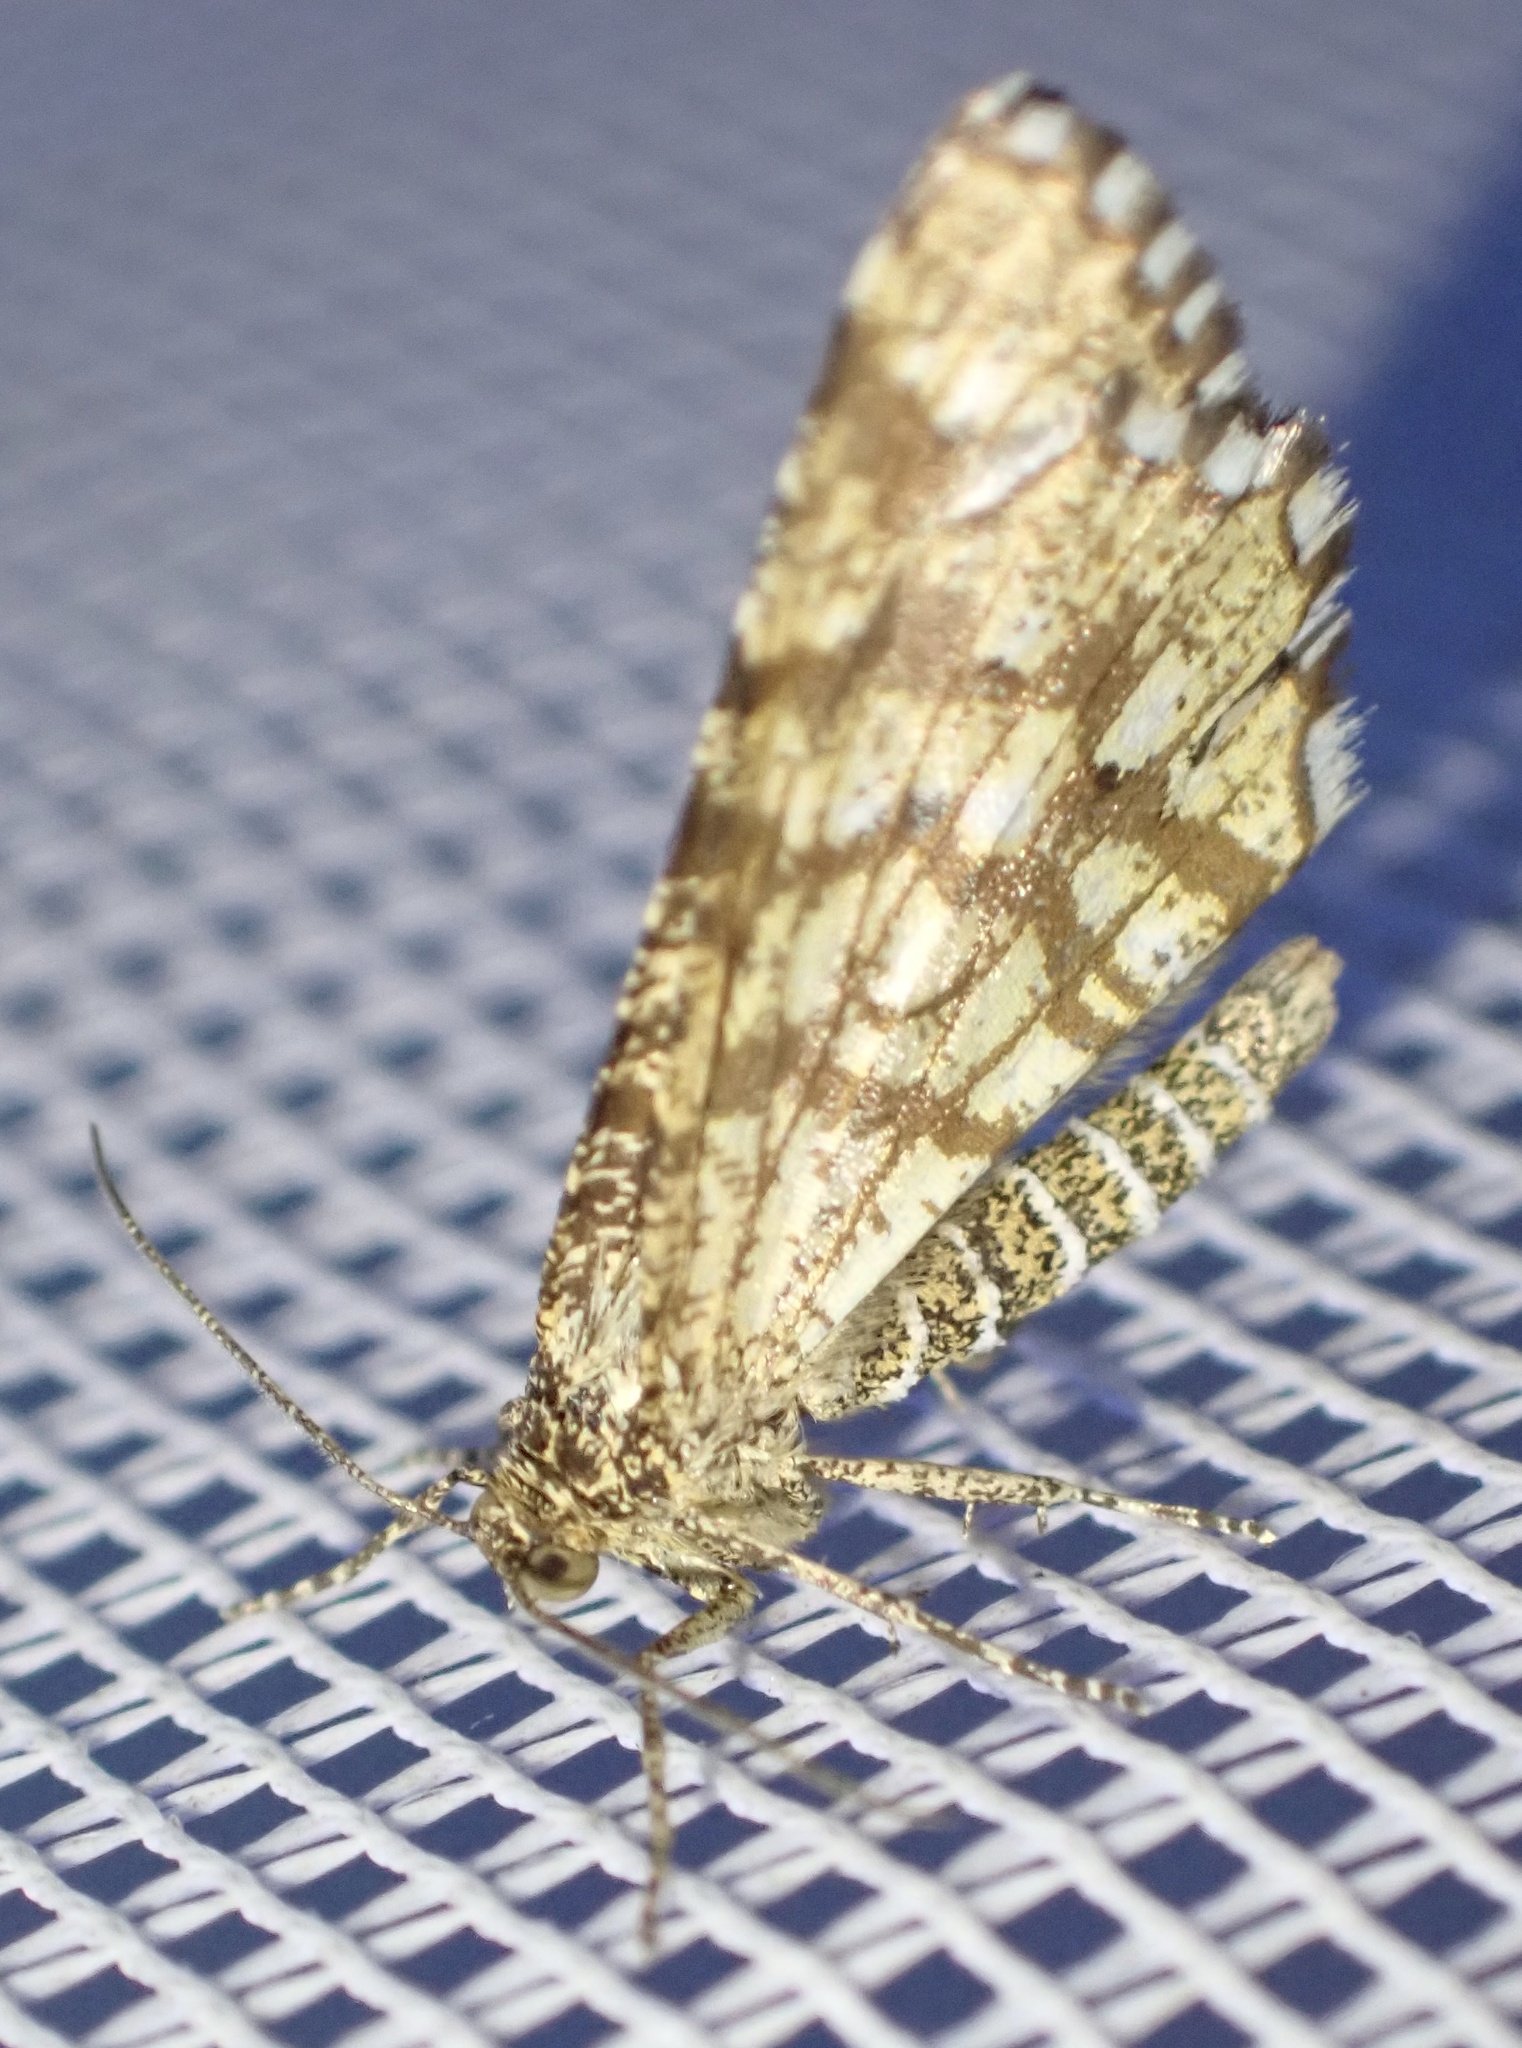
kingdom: Animalia
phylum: Arthropoda
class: Insecta
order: Lepidoptera
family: Geometridae
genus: Chiasmia
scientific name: Chiasmia clathrata
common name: Latticed heath
